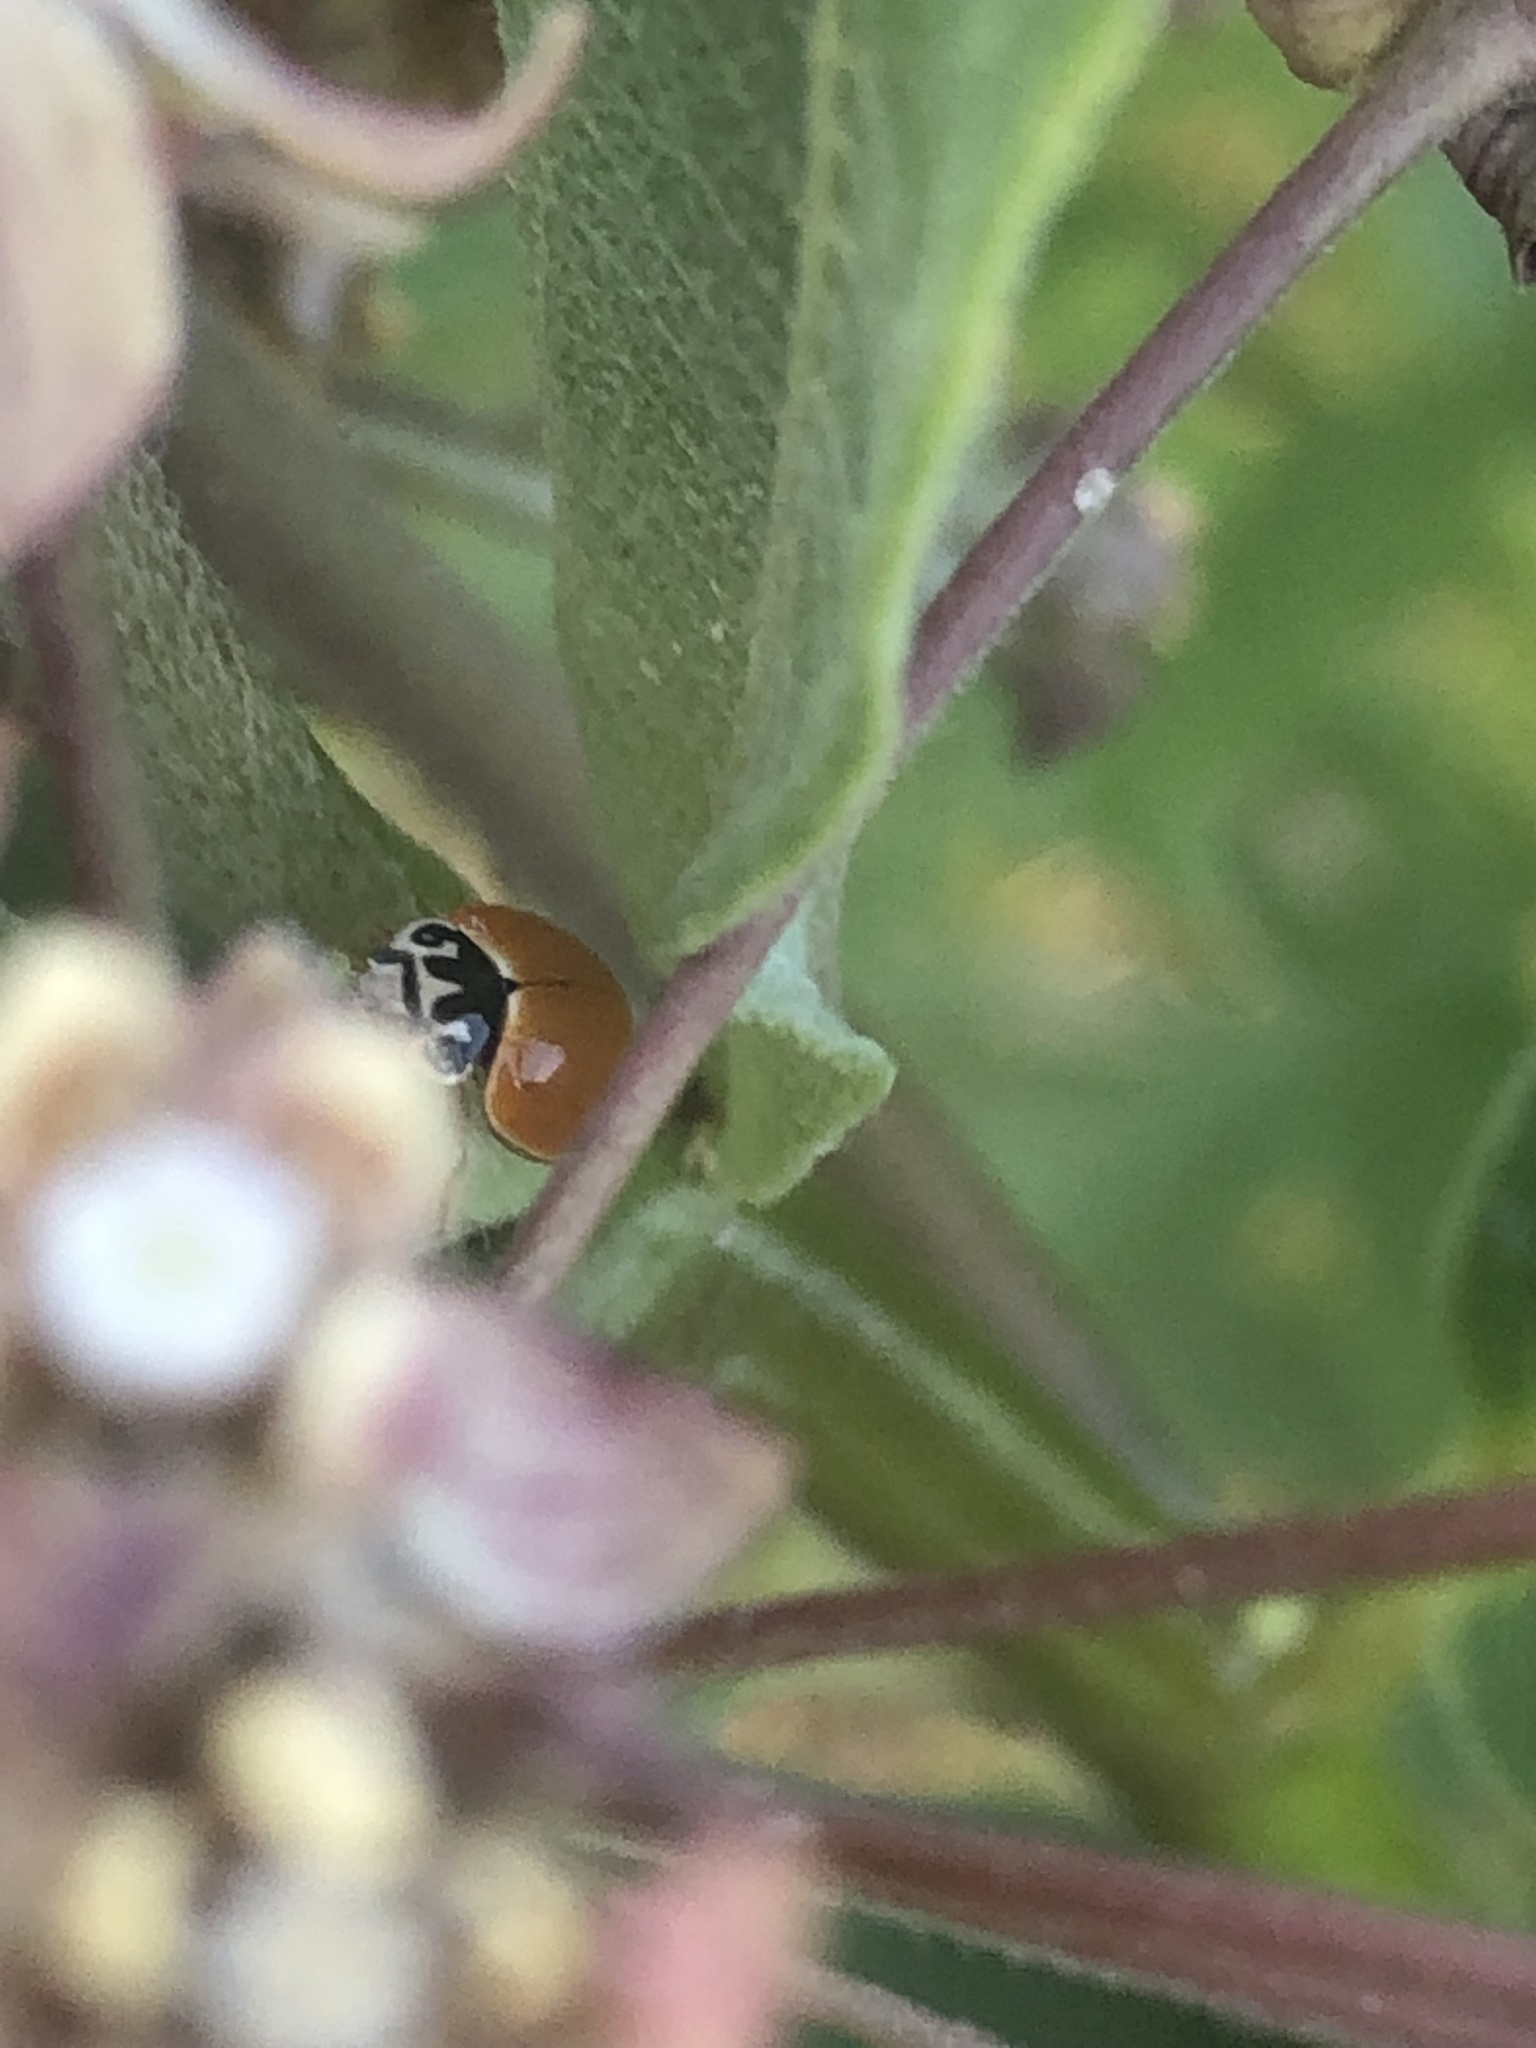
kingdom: Animalia
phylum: Arthropoda
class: Insecta
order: Coleoptera
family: Coccinellidae
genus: Cycloneda
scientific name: Cycloneda munda
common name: Polished lady beetle
